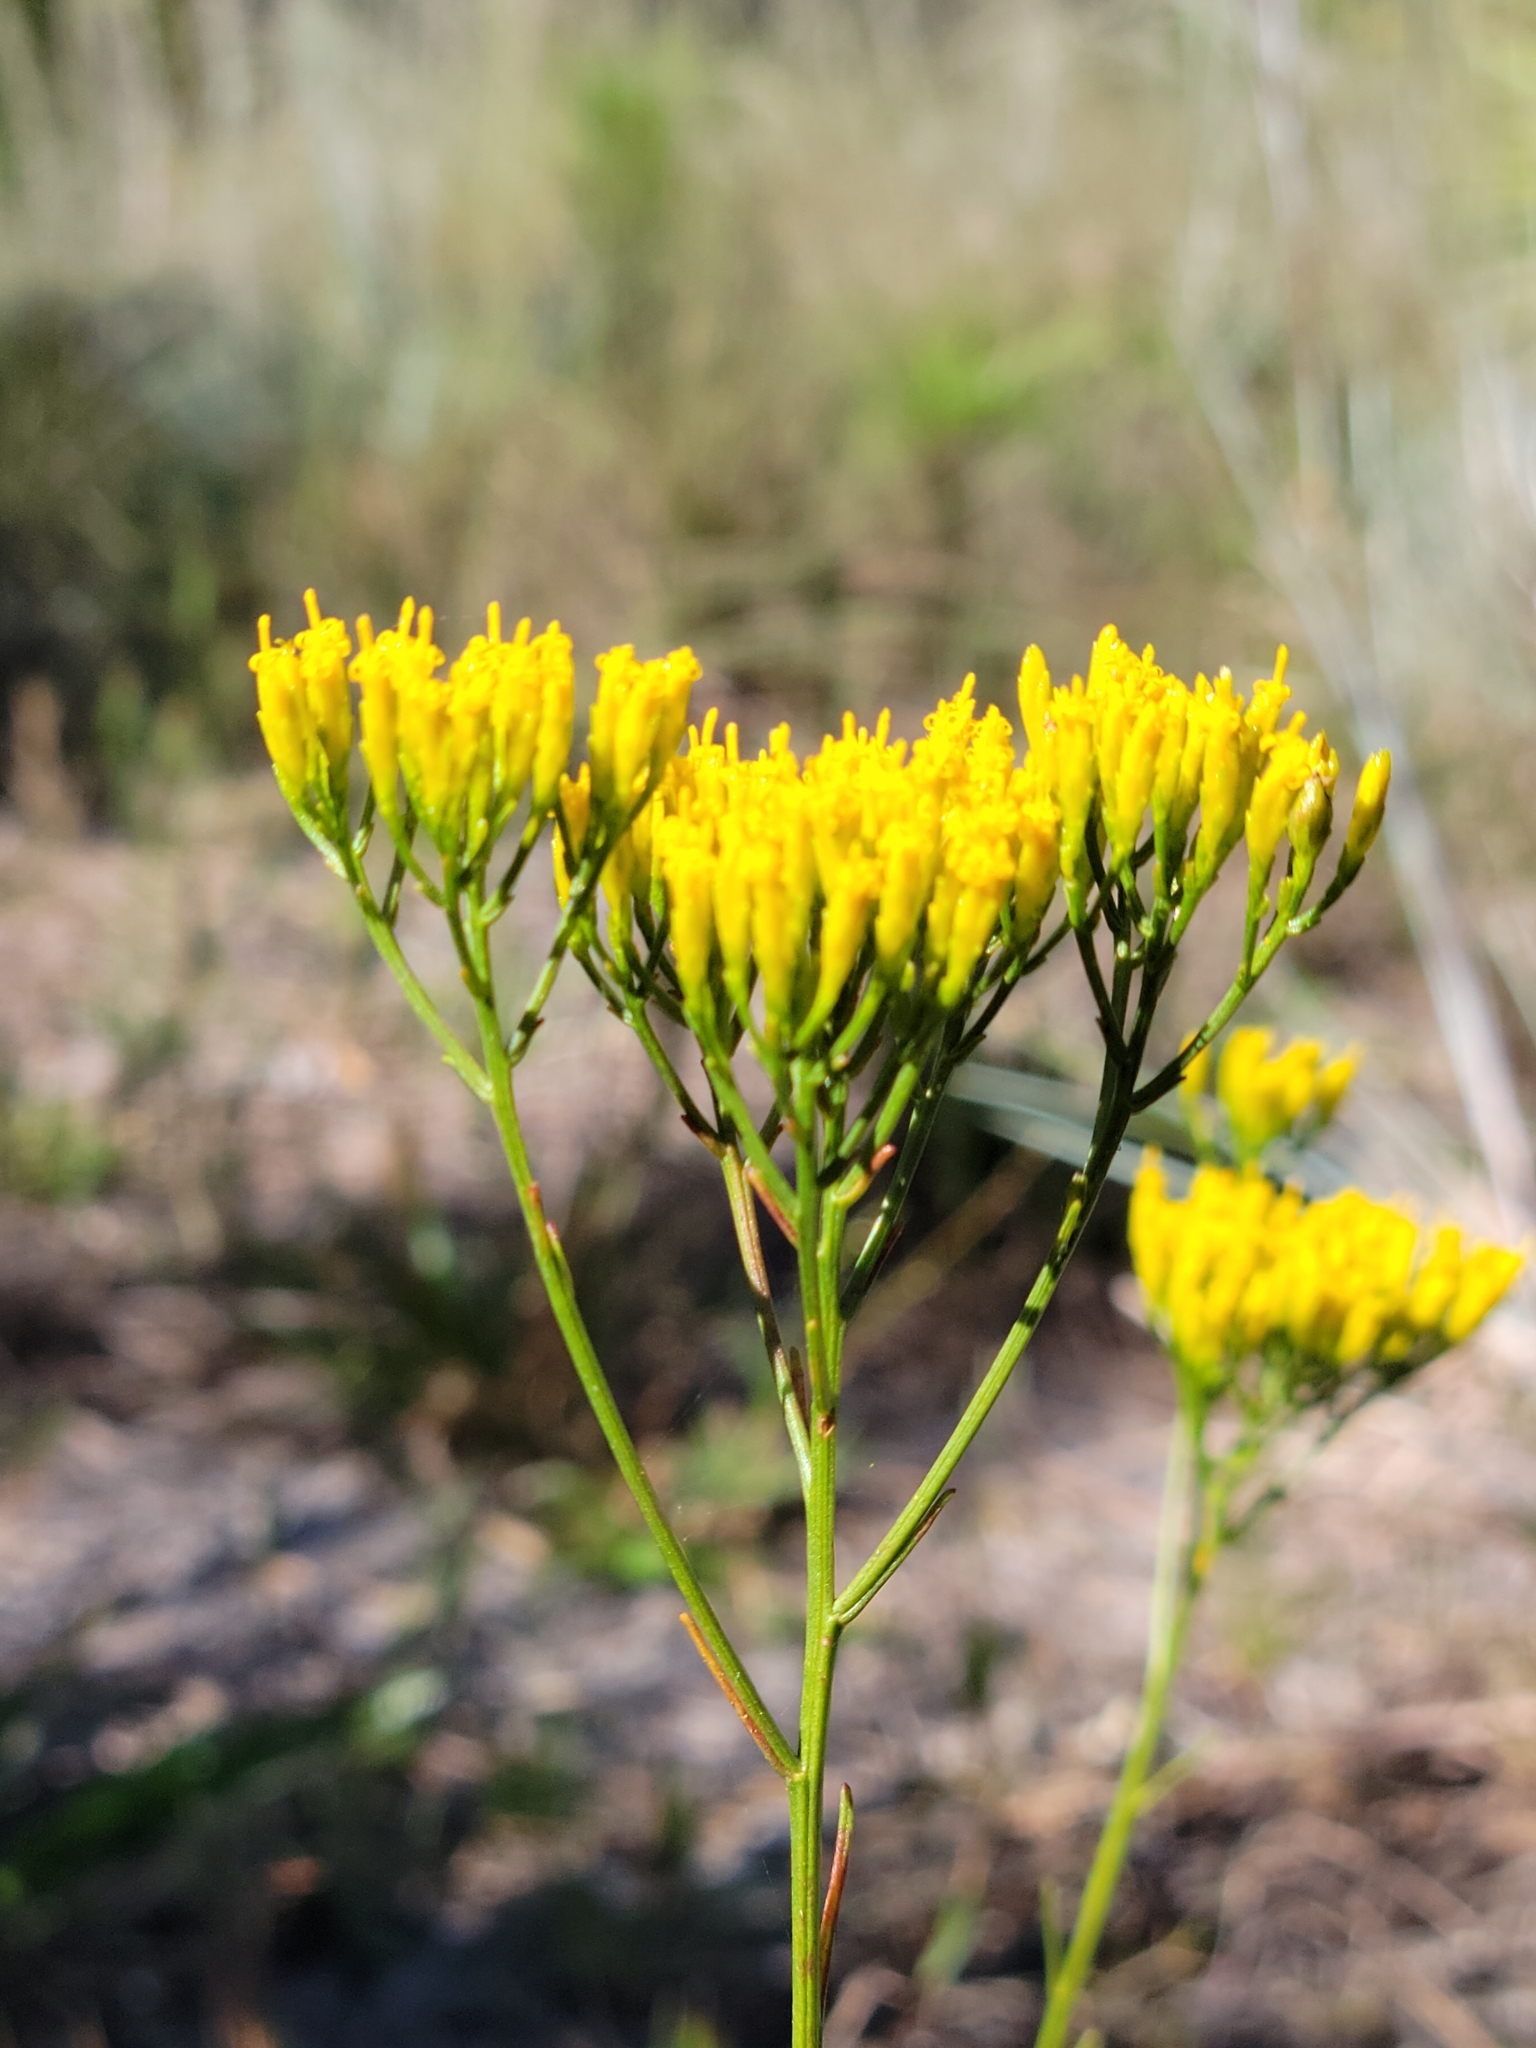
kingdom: Plantae
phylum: Tracheophyta
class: Magnoliopsida
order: Asterales
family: Asteraceae
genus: Bigelowia
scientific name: Bigelowia australis
